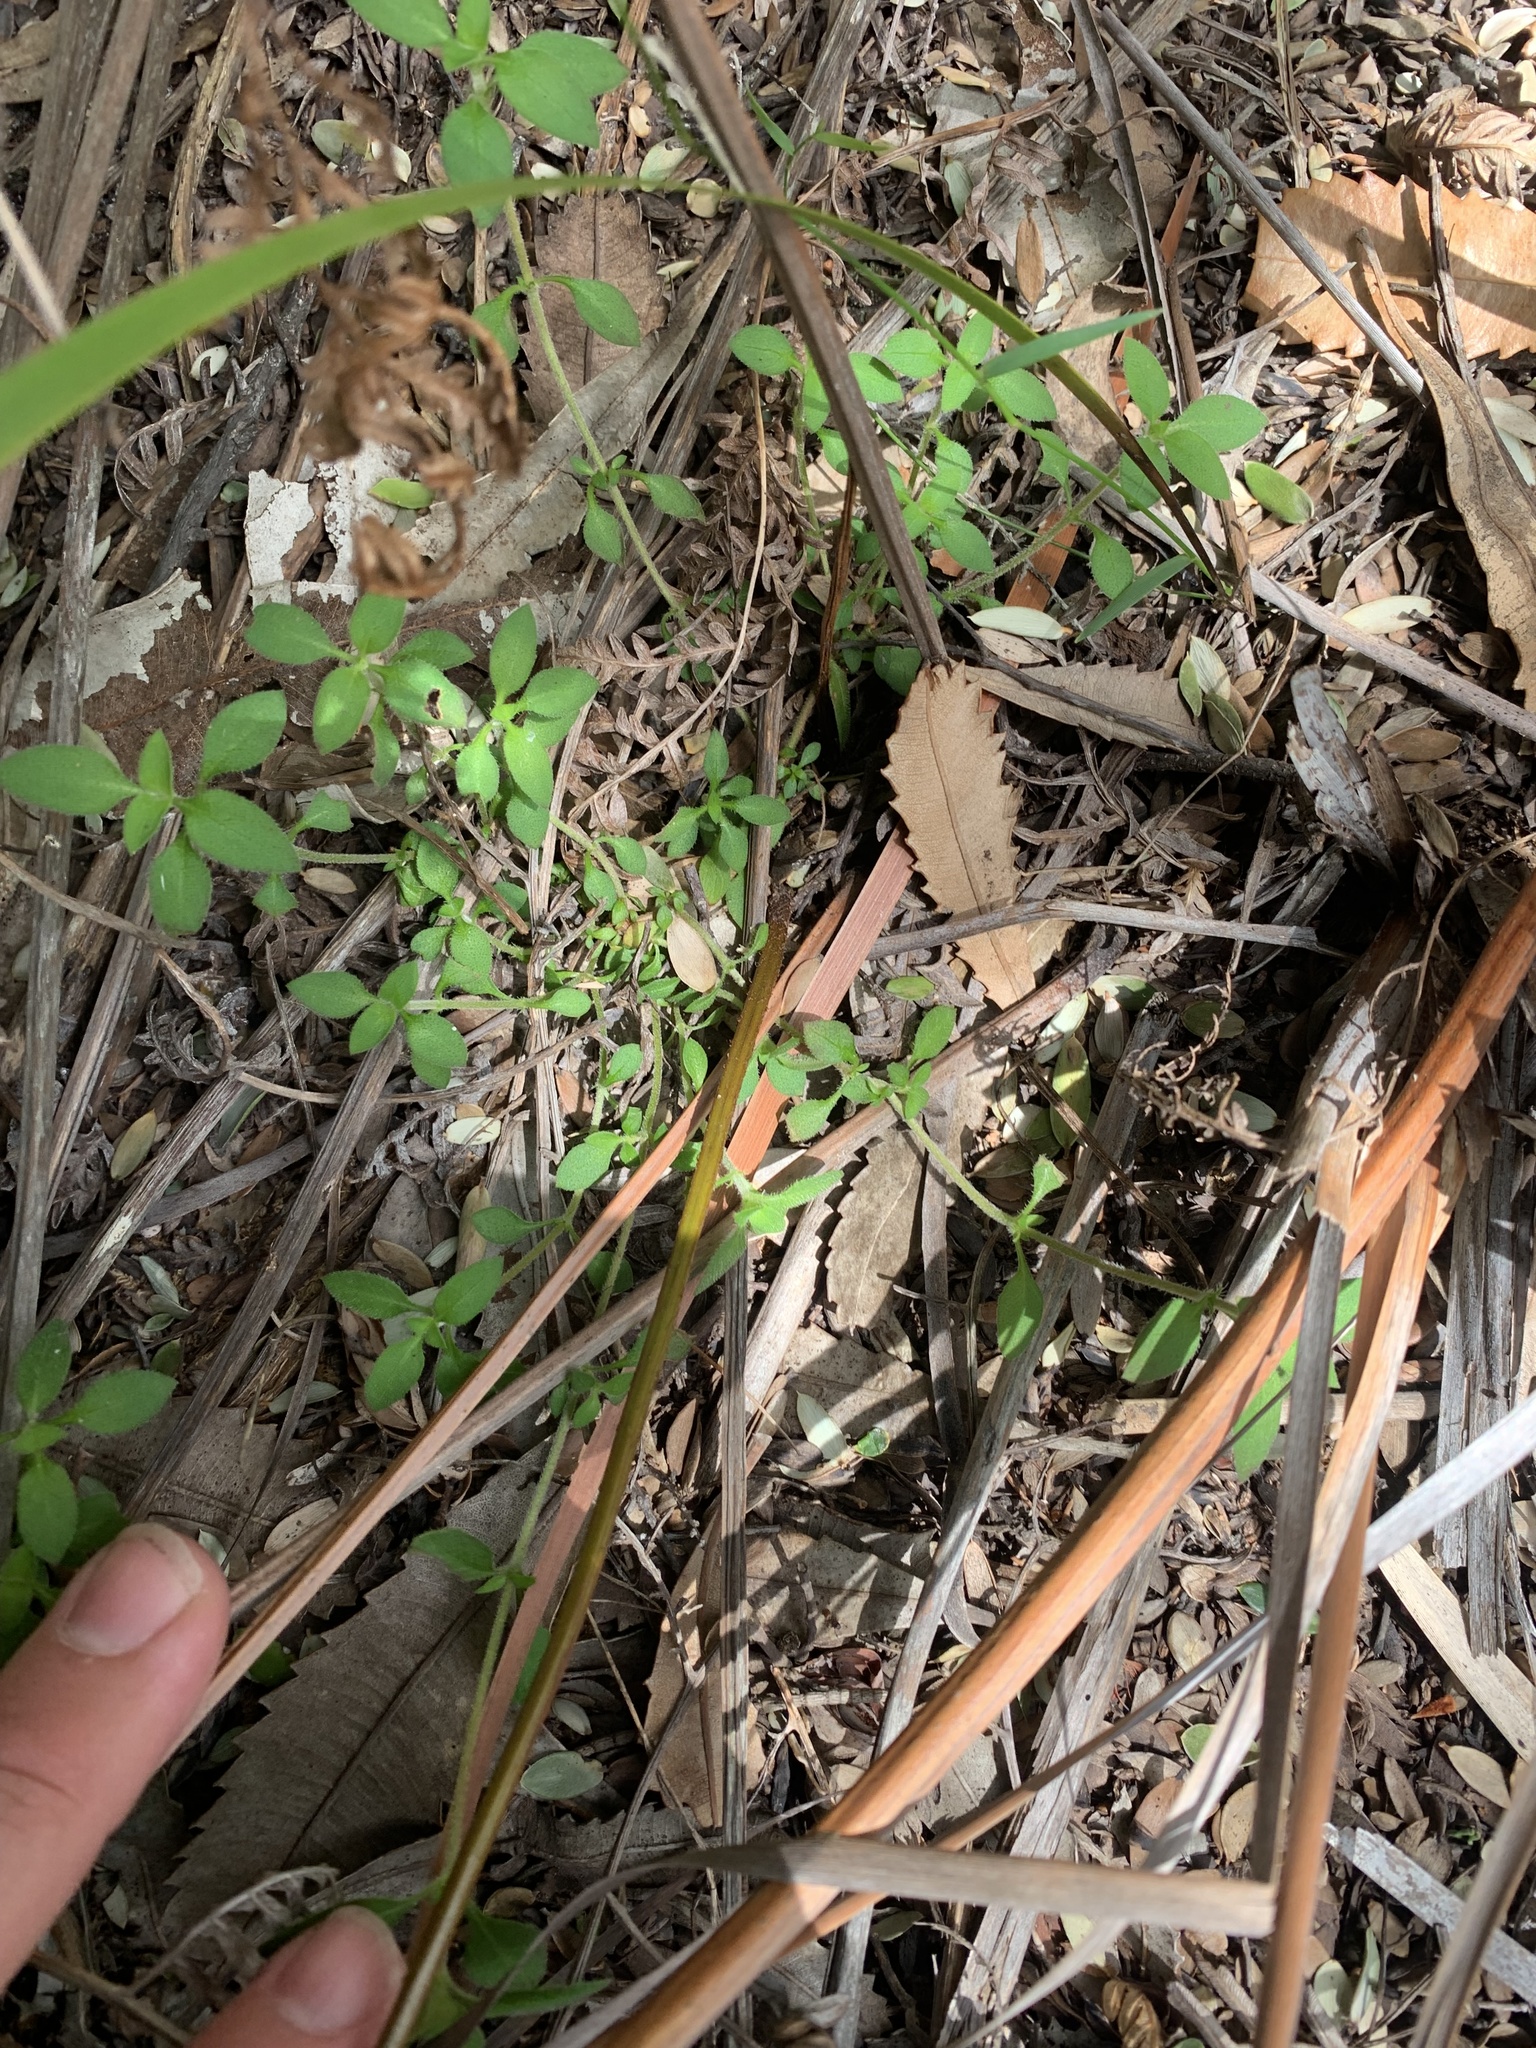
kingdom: Plantae
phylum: Tracheophyta
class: Magnoliopsida
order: Gentianales
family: Rubiaceae
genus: Pomax
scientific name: Pomax umbellata
